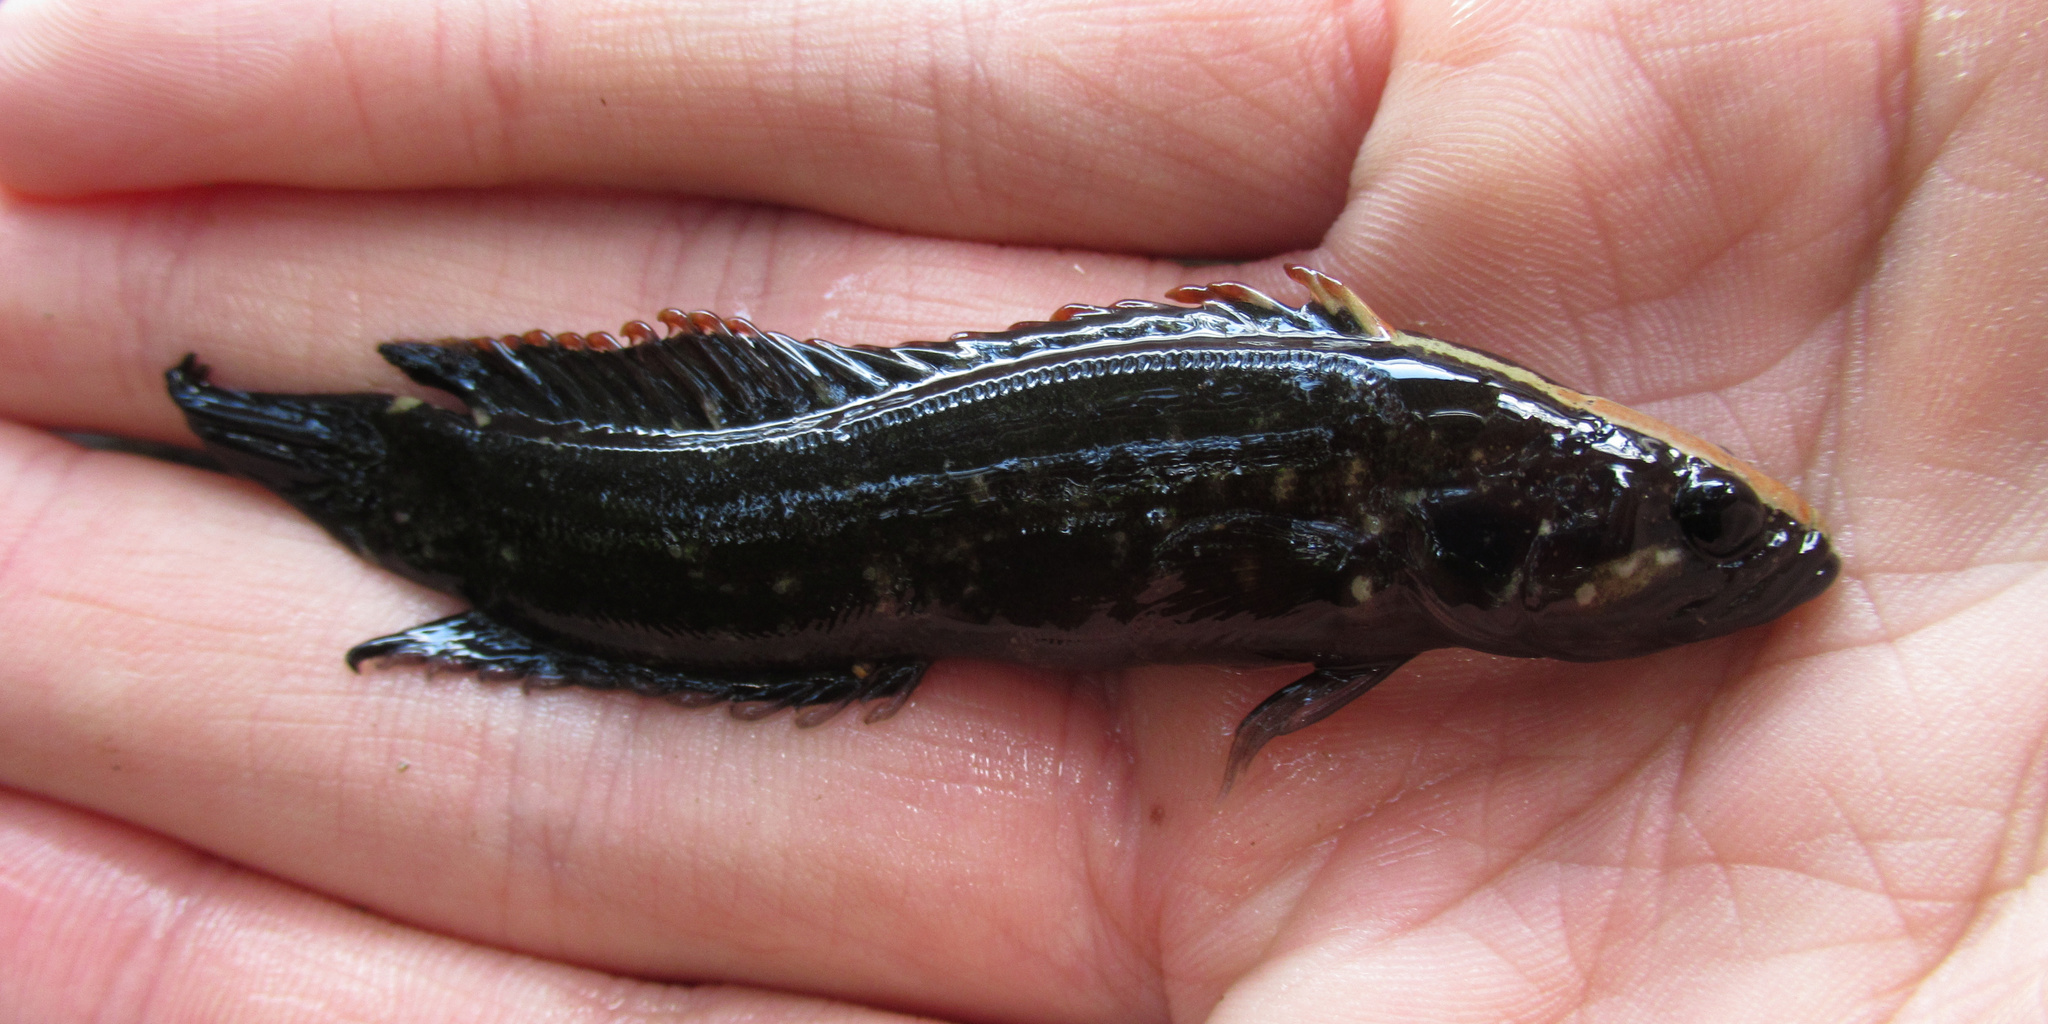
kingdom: Animalia
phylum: Chordata
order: Perciformes
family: Plesiopidae
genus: Acanthoclinus
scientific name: Acanthoclinus fuscus
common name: Olive rockfish
